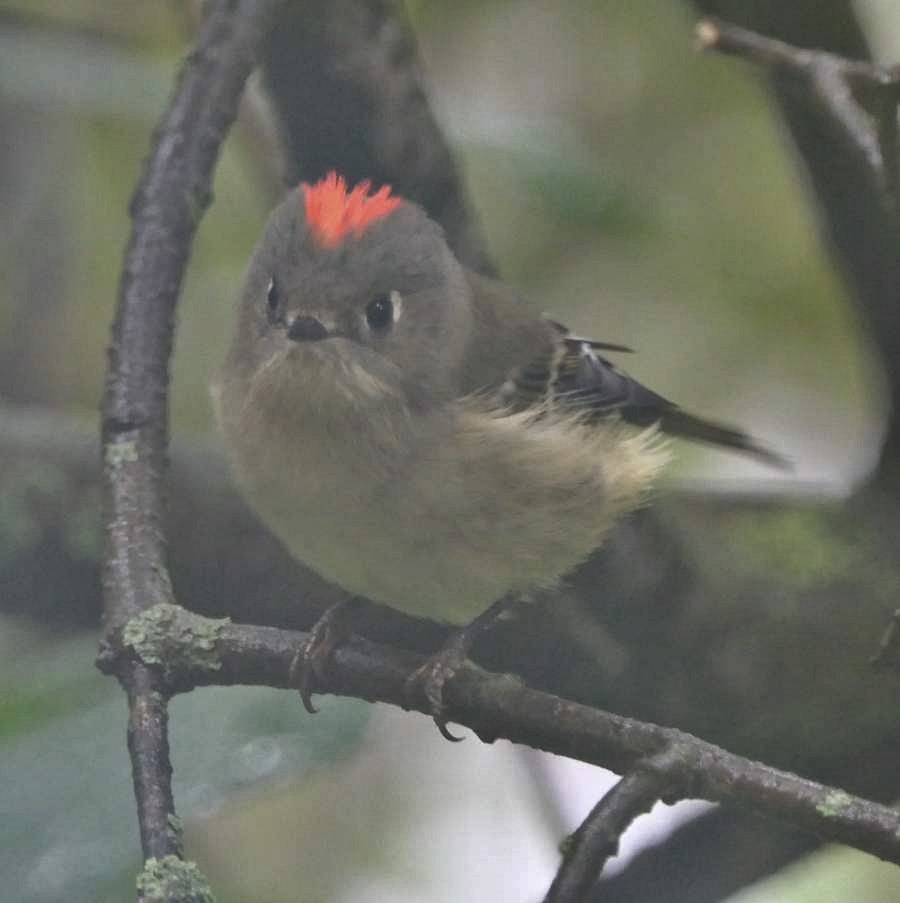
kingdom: Animalia
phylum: Chordata
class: Aves
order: Passeriformes
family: Regulidae
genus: Regulus
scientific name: Regulus calendula
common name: Ruby-crowned kinglet
